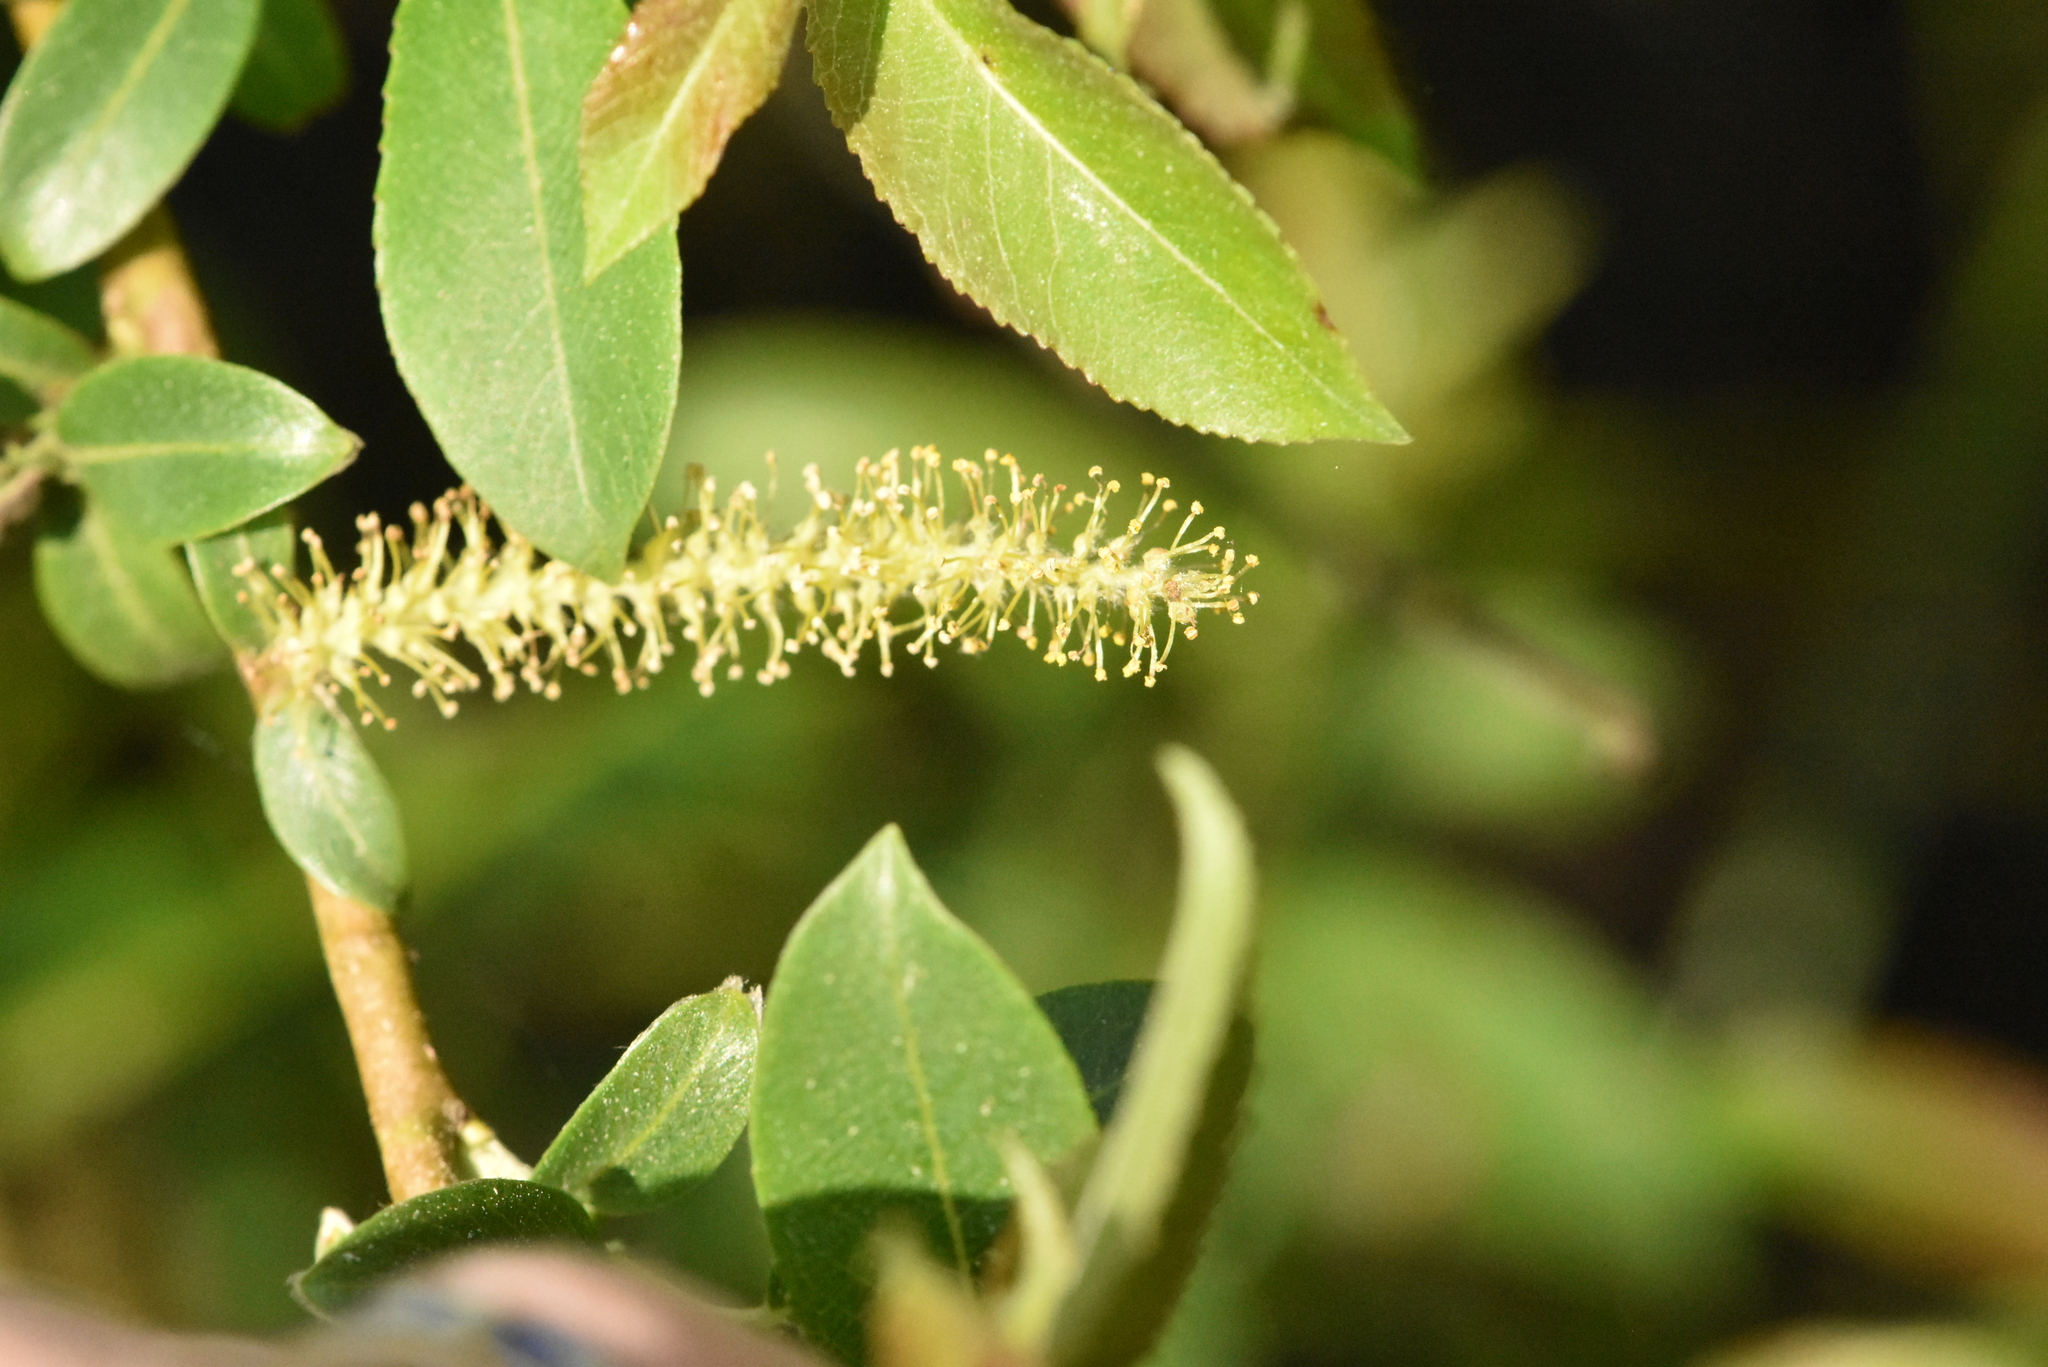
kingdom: Plantae
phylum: Tracheophyta
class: Magnoliopsida
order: Malpighiales
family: Salicaceae
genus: Salix
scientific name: Salix triandra
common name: Almond willow
